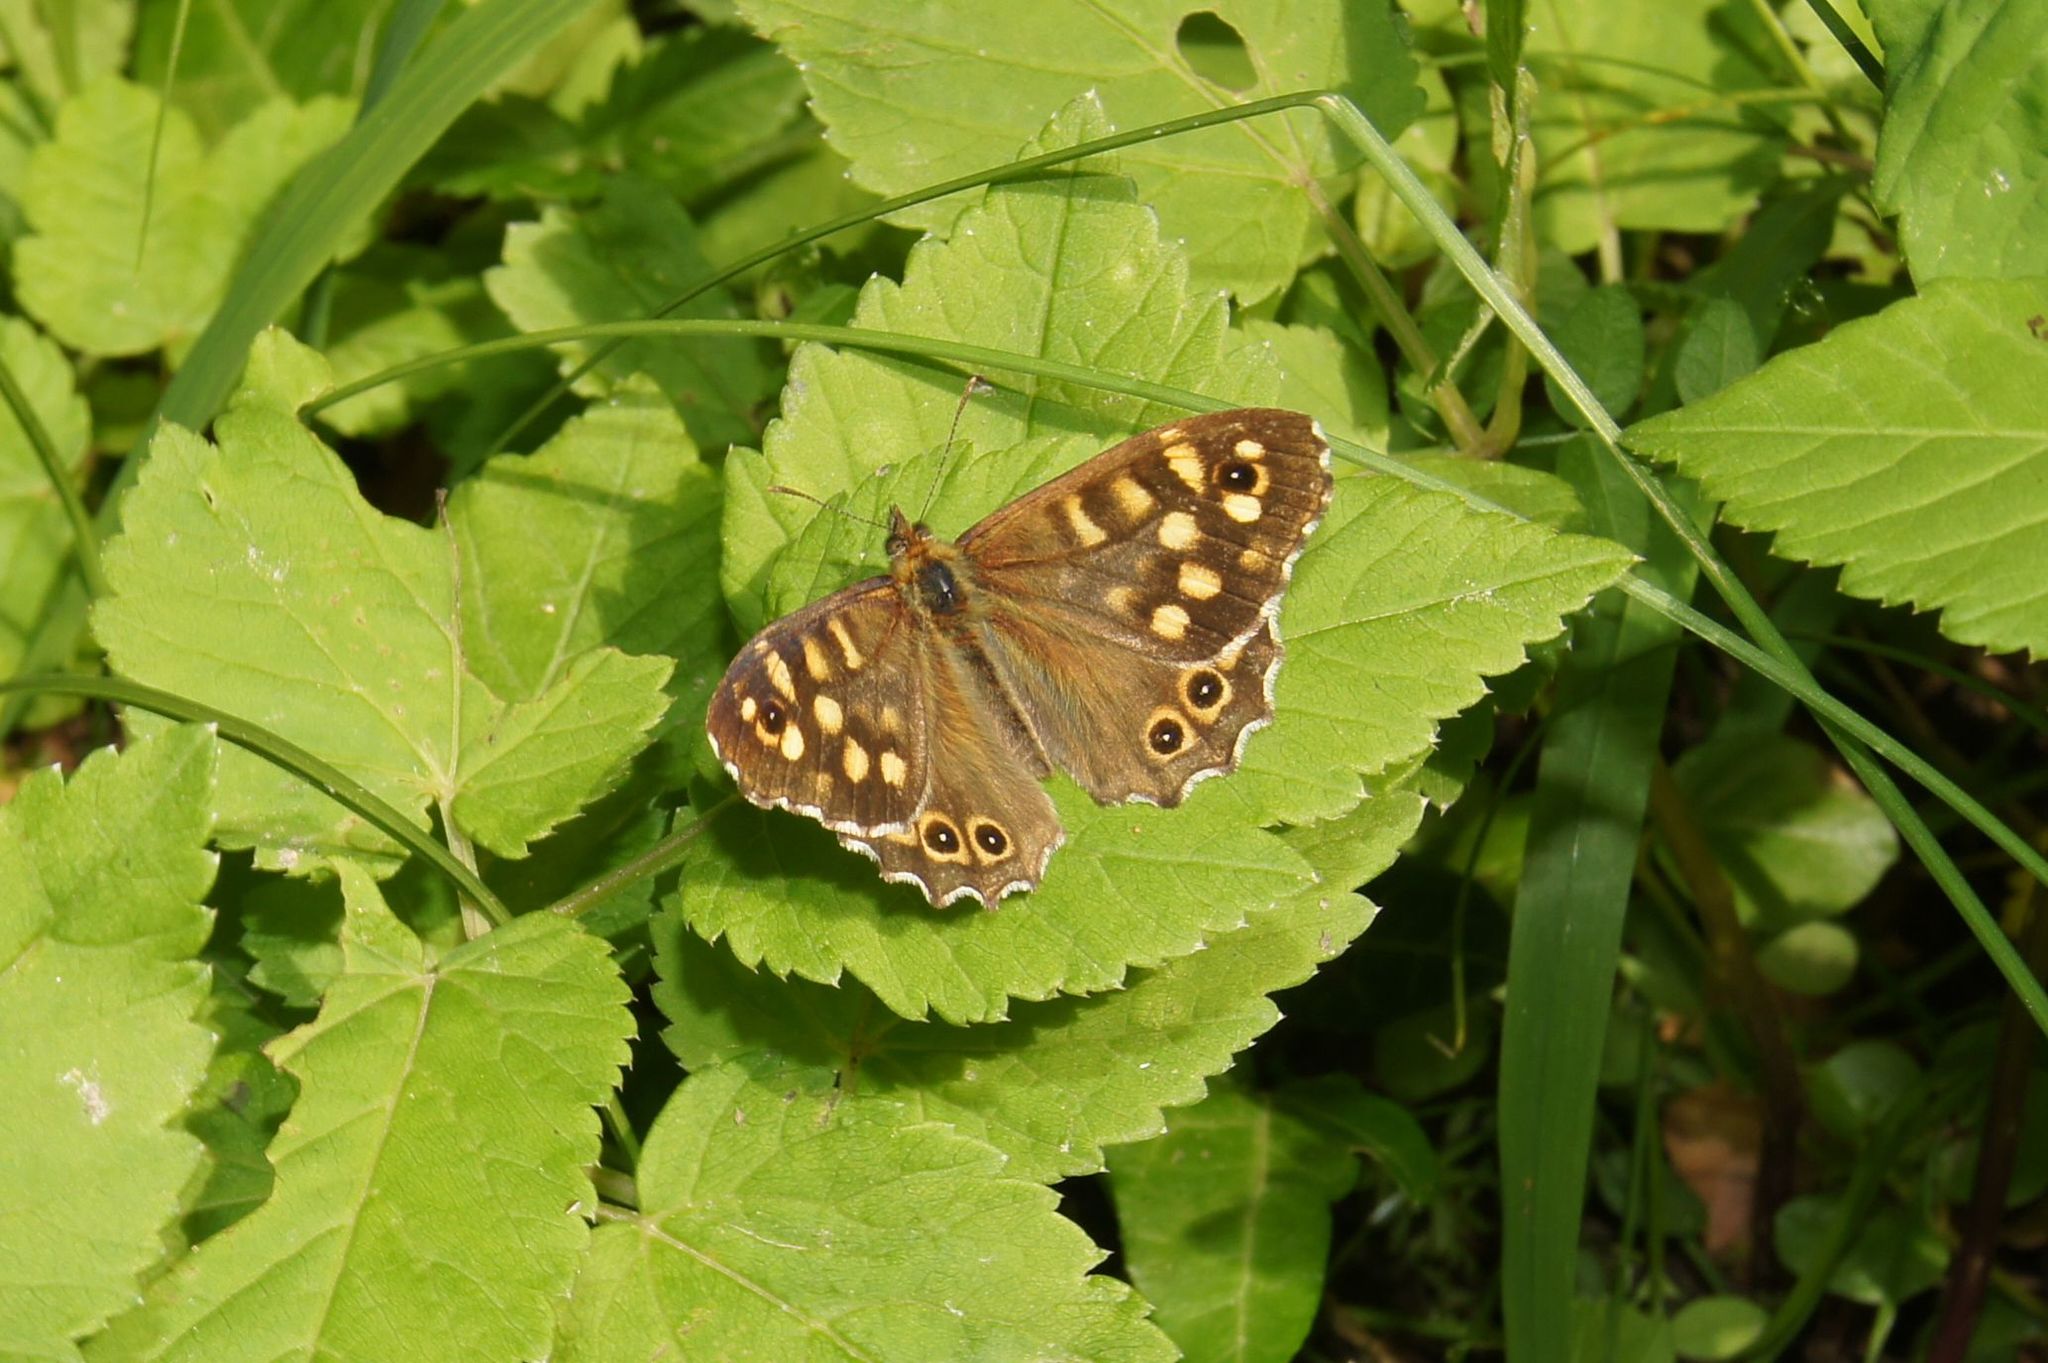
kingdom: Animalia
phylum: Arthropoda
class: Insecta
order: Lepidoptera
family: Nymphalidae
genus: Pararge
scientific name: Pararge aegeria
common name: Speckled wood
